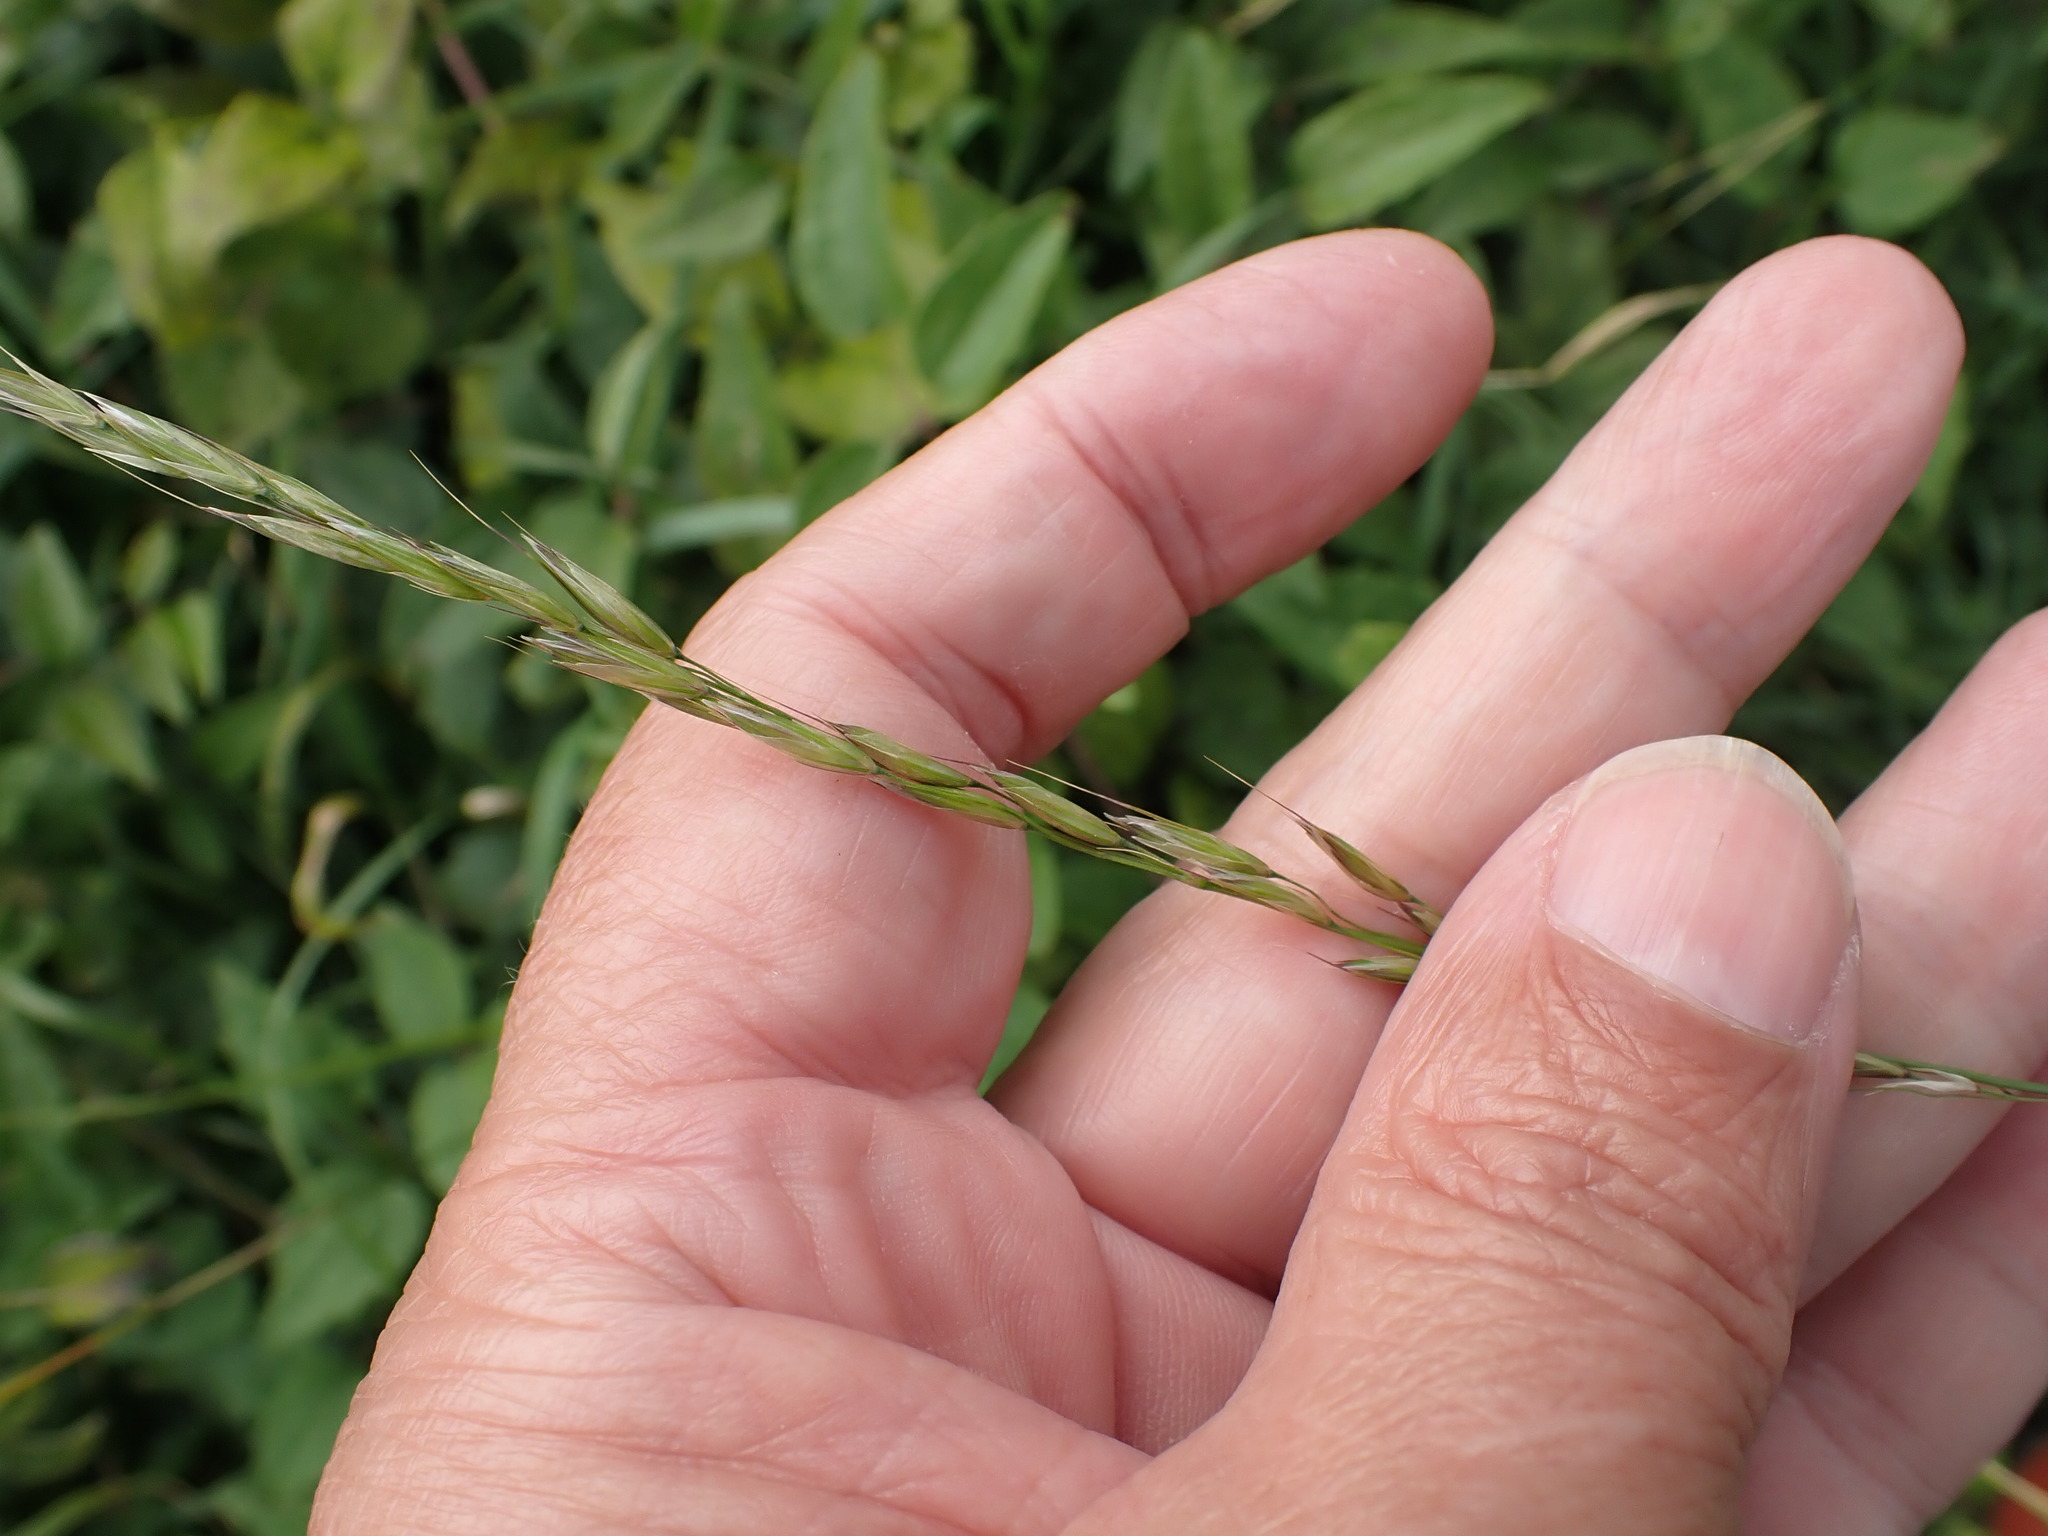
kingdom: Plantae
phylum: Tracheophyta
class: Liliopsida
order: Poales
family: Poaceae
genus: Arrhenatherum
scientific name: Arrhenatherum elatius
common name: Tall oatgrass
